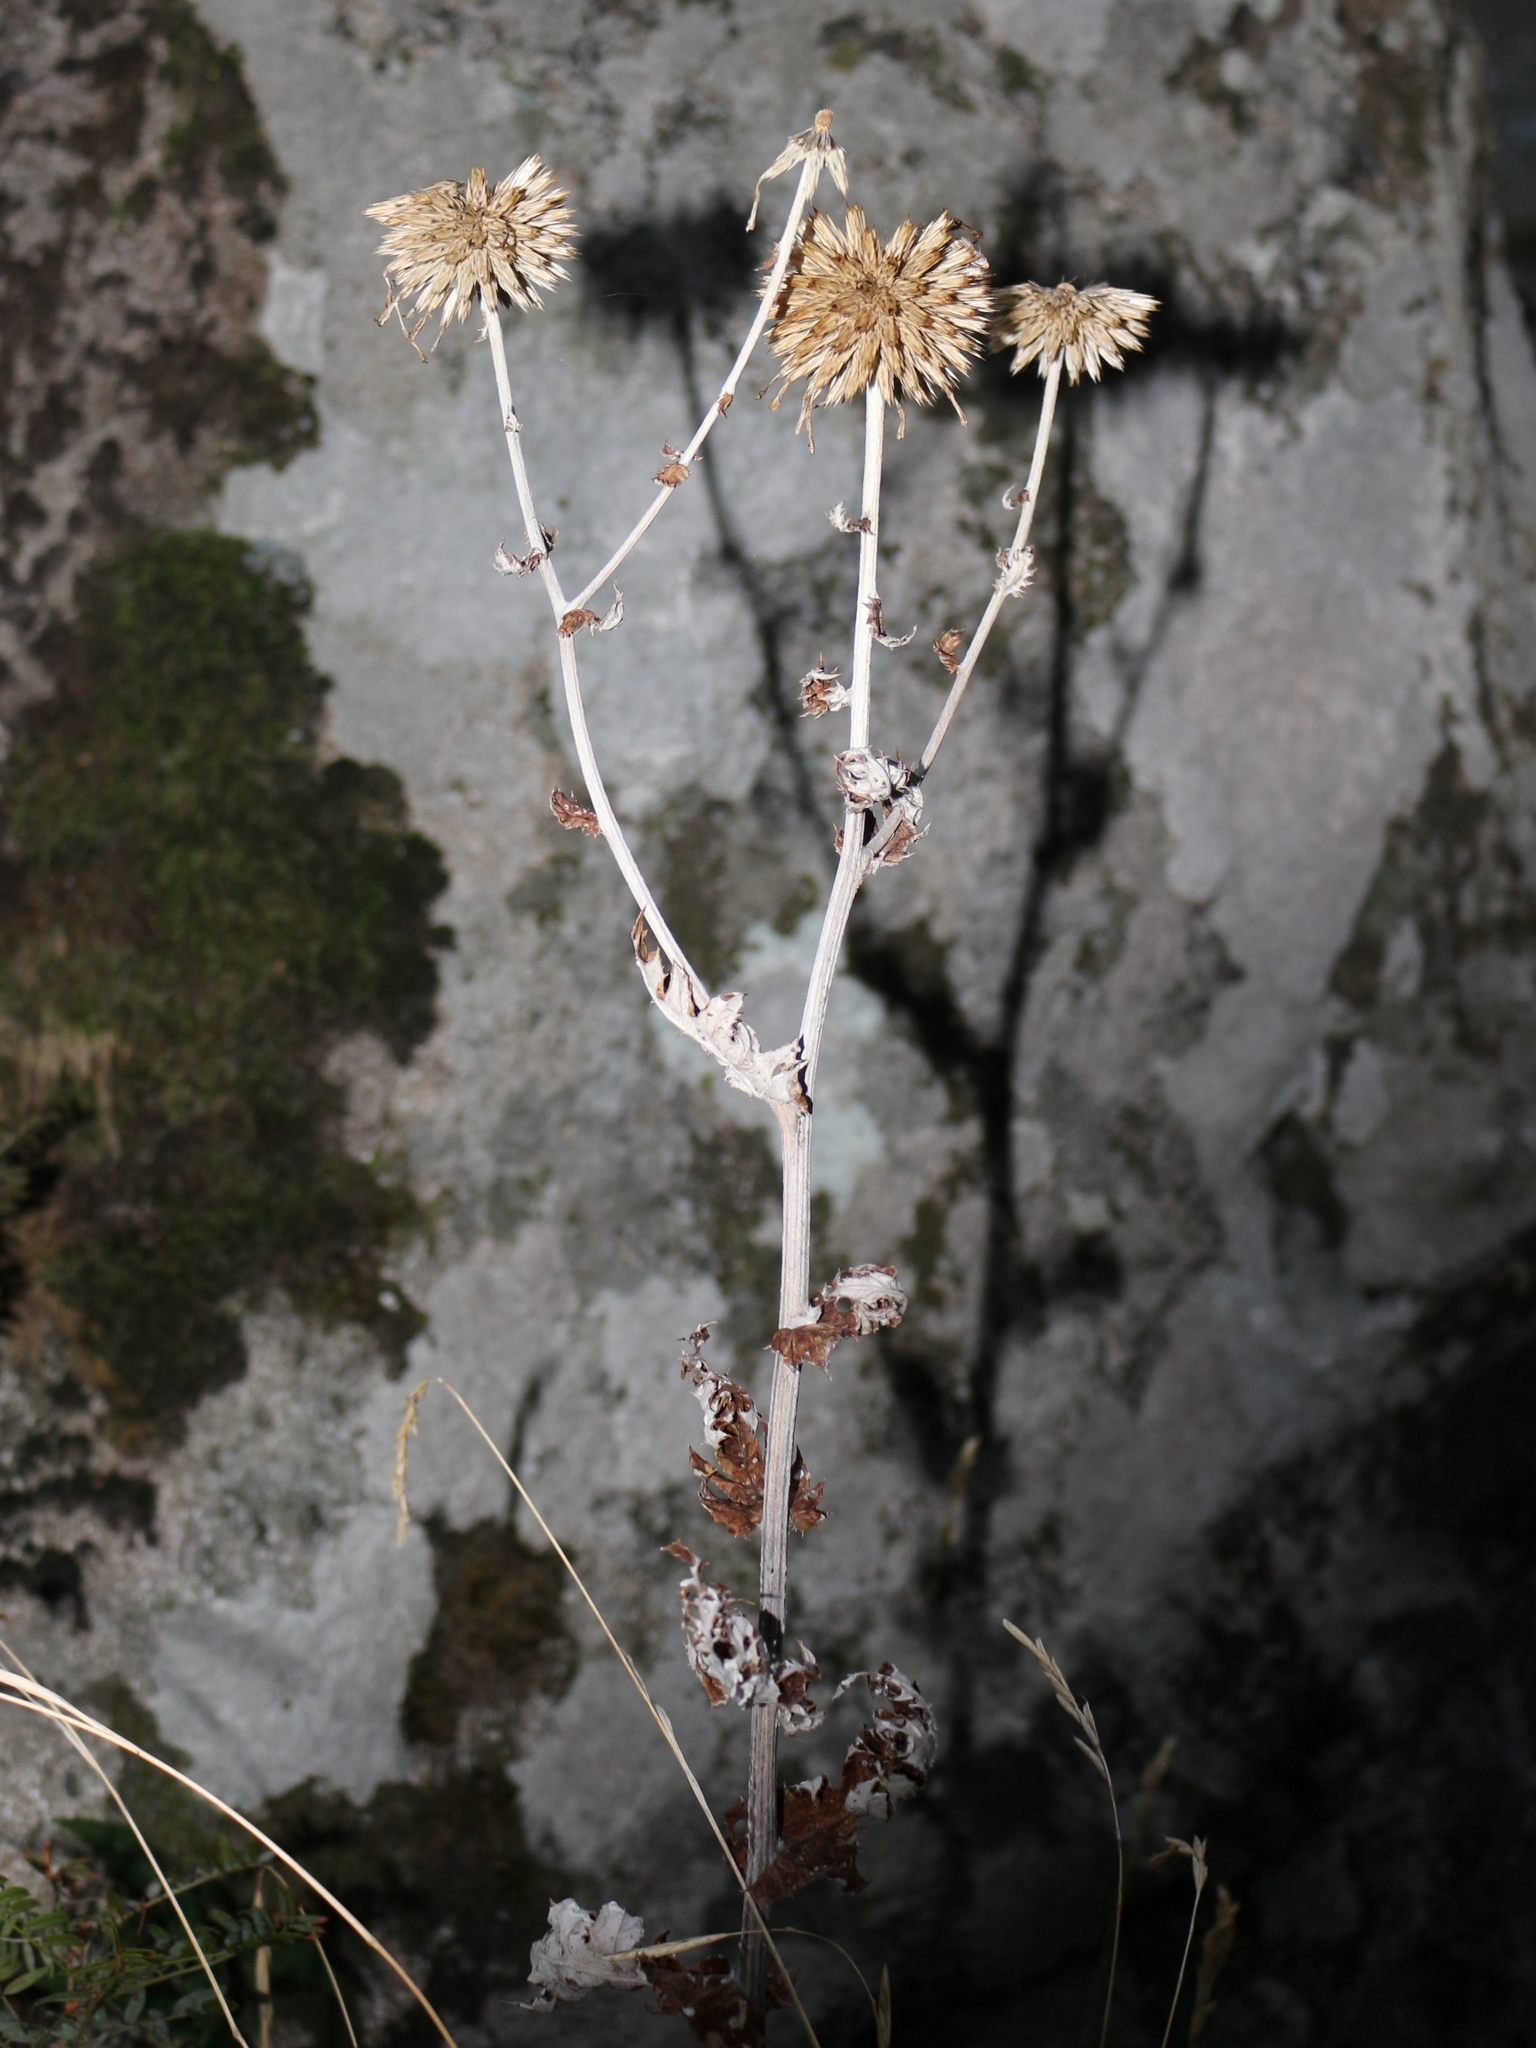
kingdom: Plantae
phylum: Tracheophyta
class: Magnoliopsida
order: Asterales
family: Asteraceae
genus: Echinops
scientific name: Echinops sphaerocephalus
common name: Glandular globe-thistle
